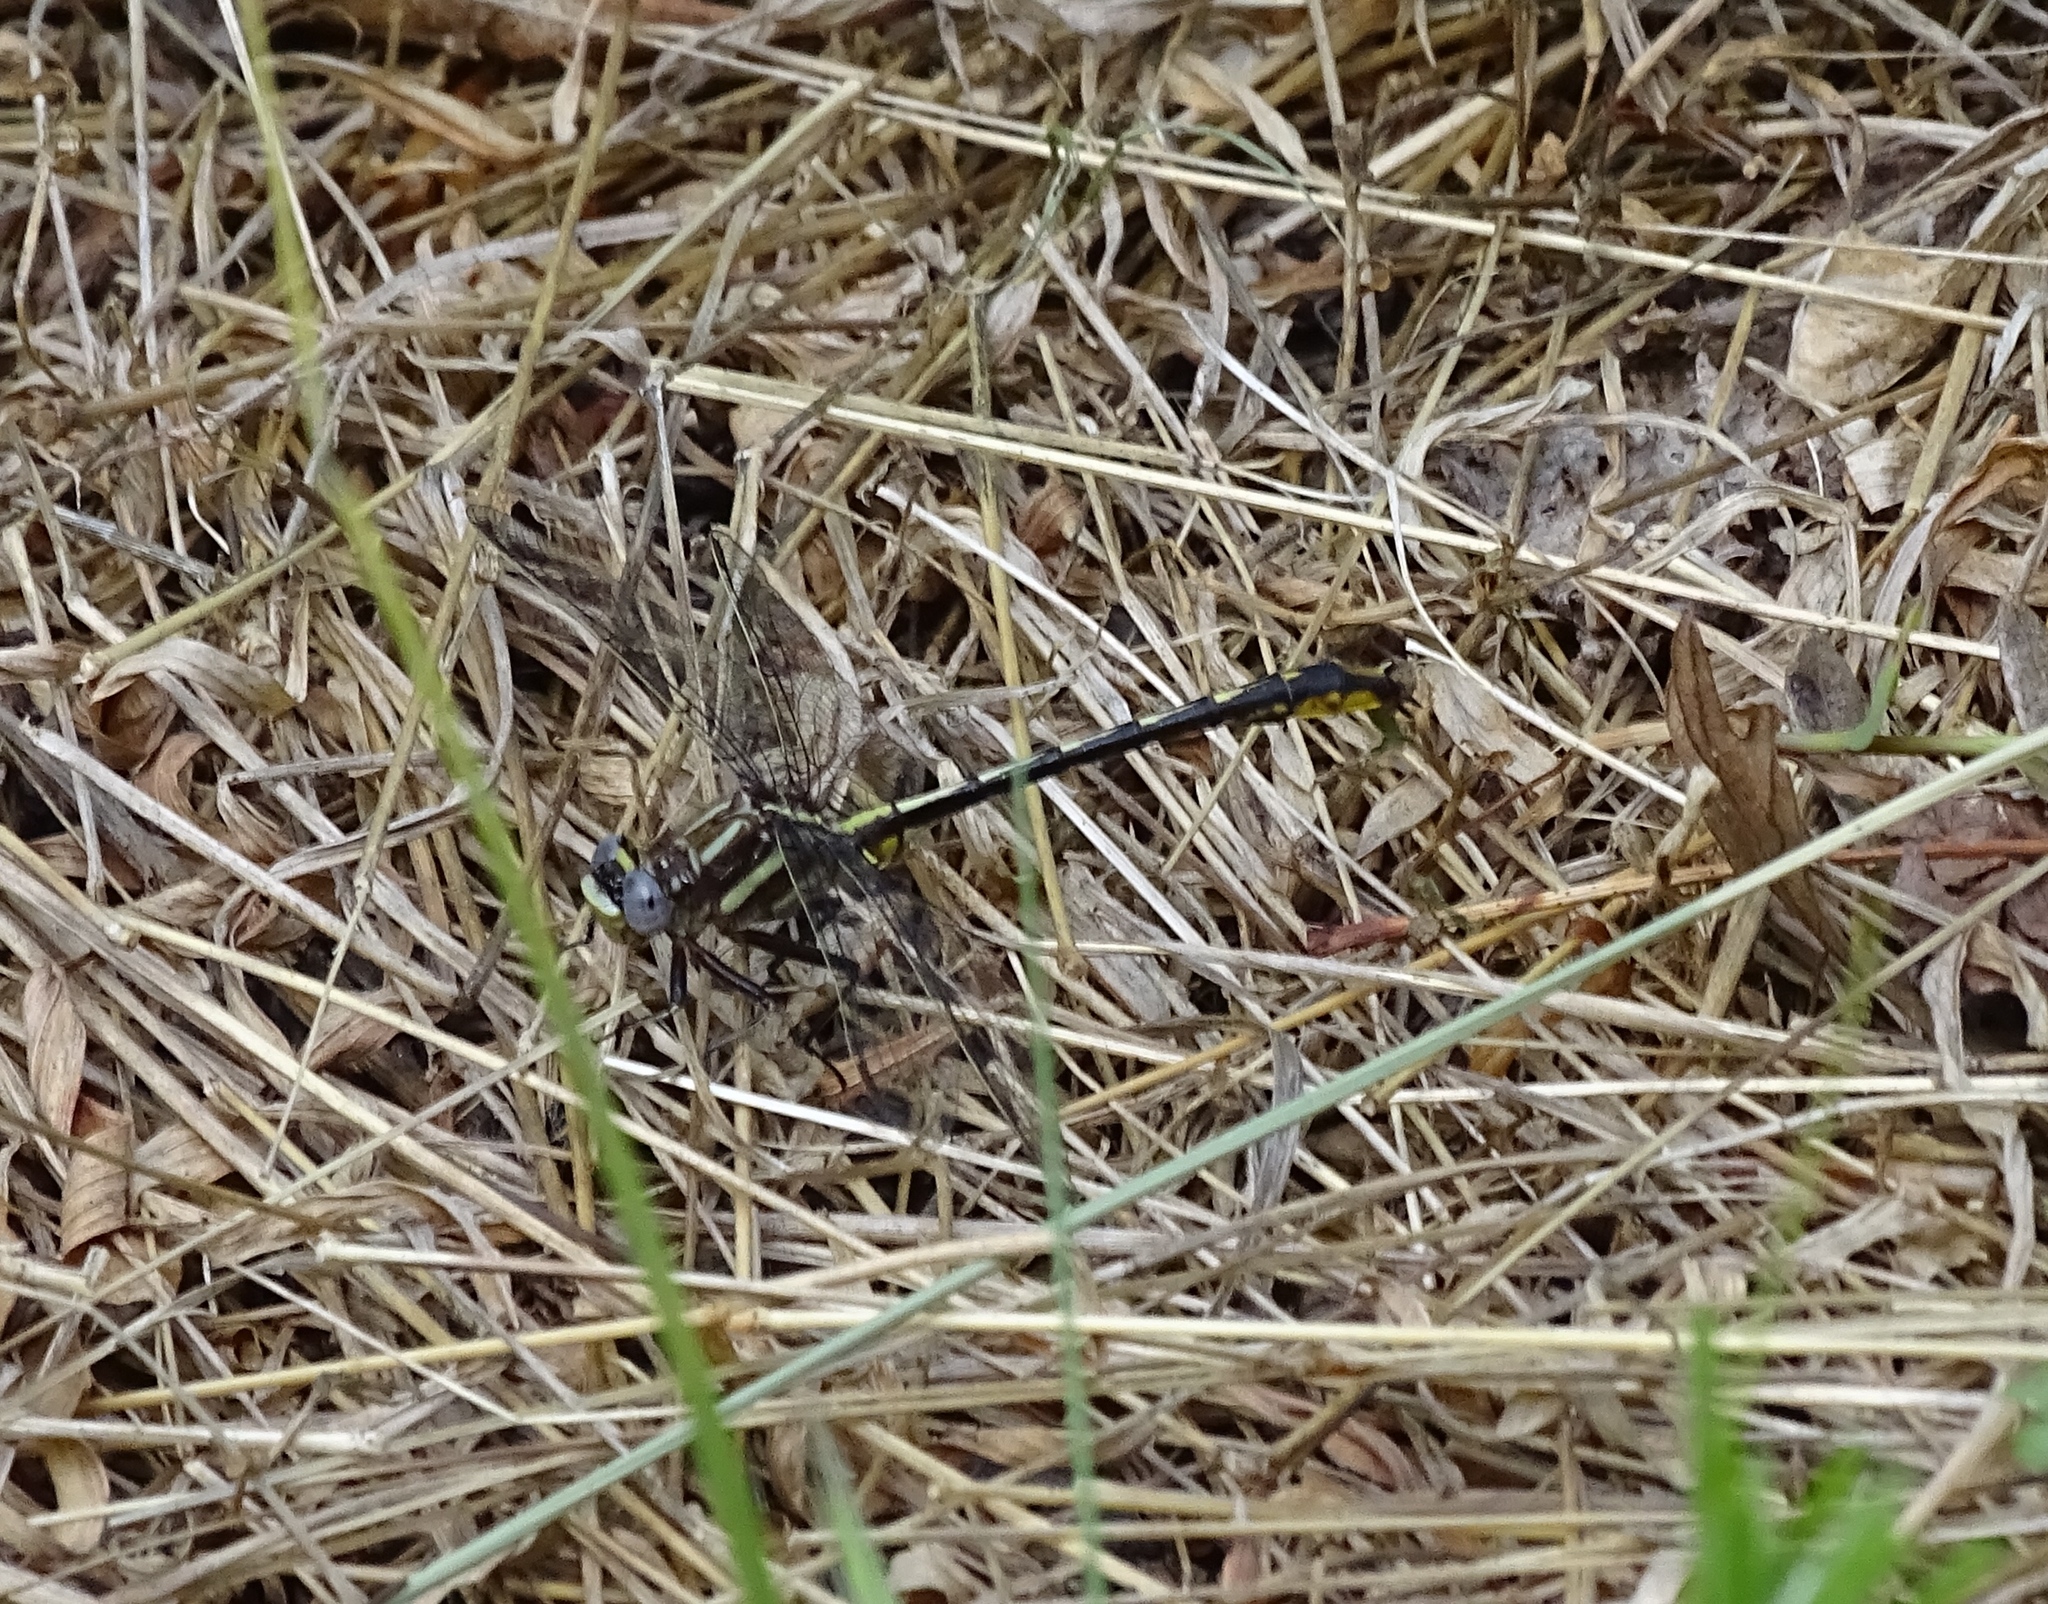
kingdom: Animalia
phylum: Arthropoda
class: Insecta
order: Odonata
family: Gomphidae
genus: Phanogomphus
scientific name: Phanogomphus exilis
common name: Lancet clubtail
